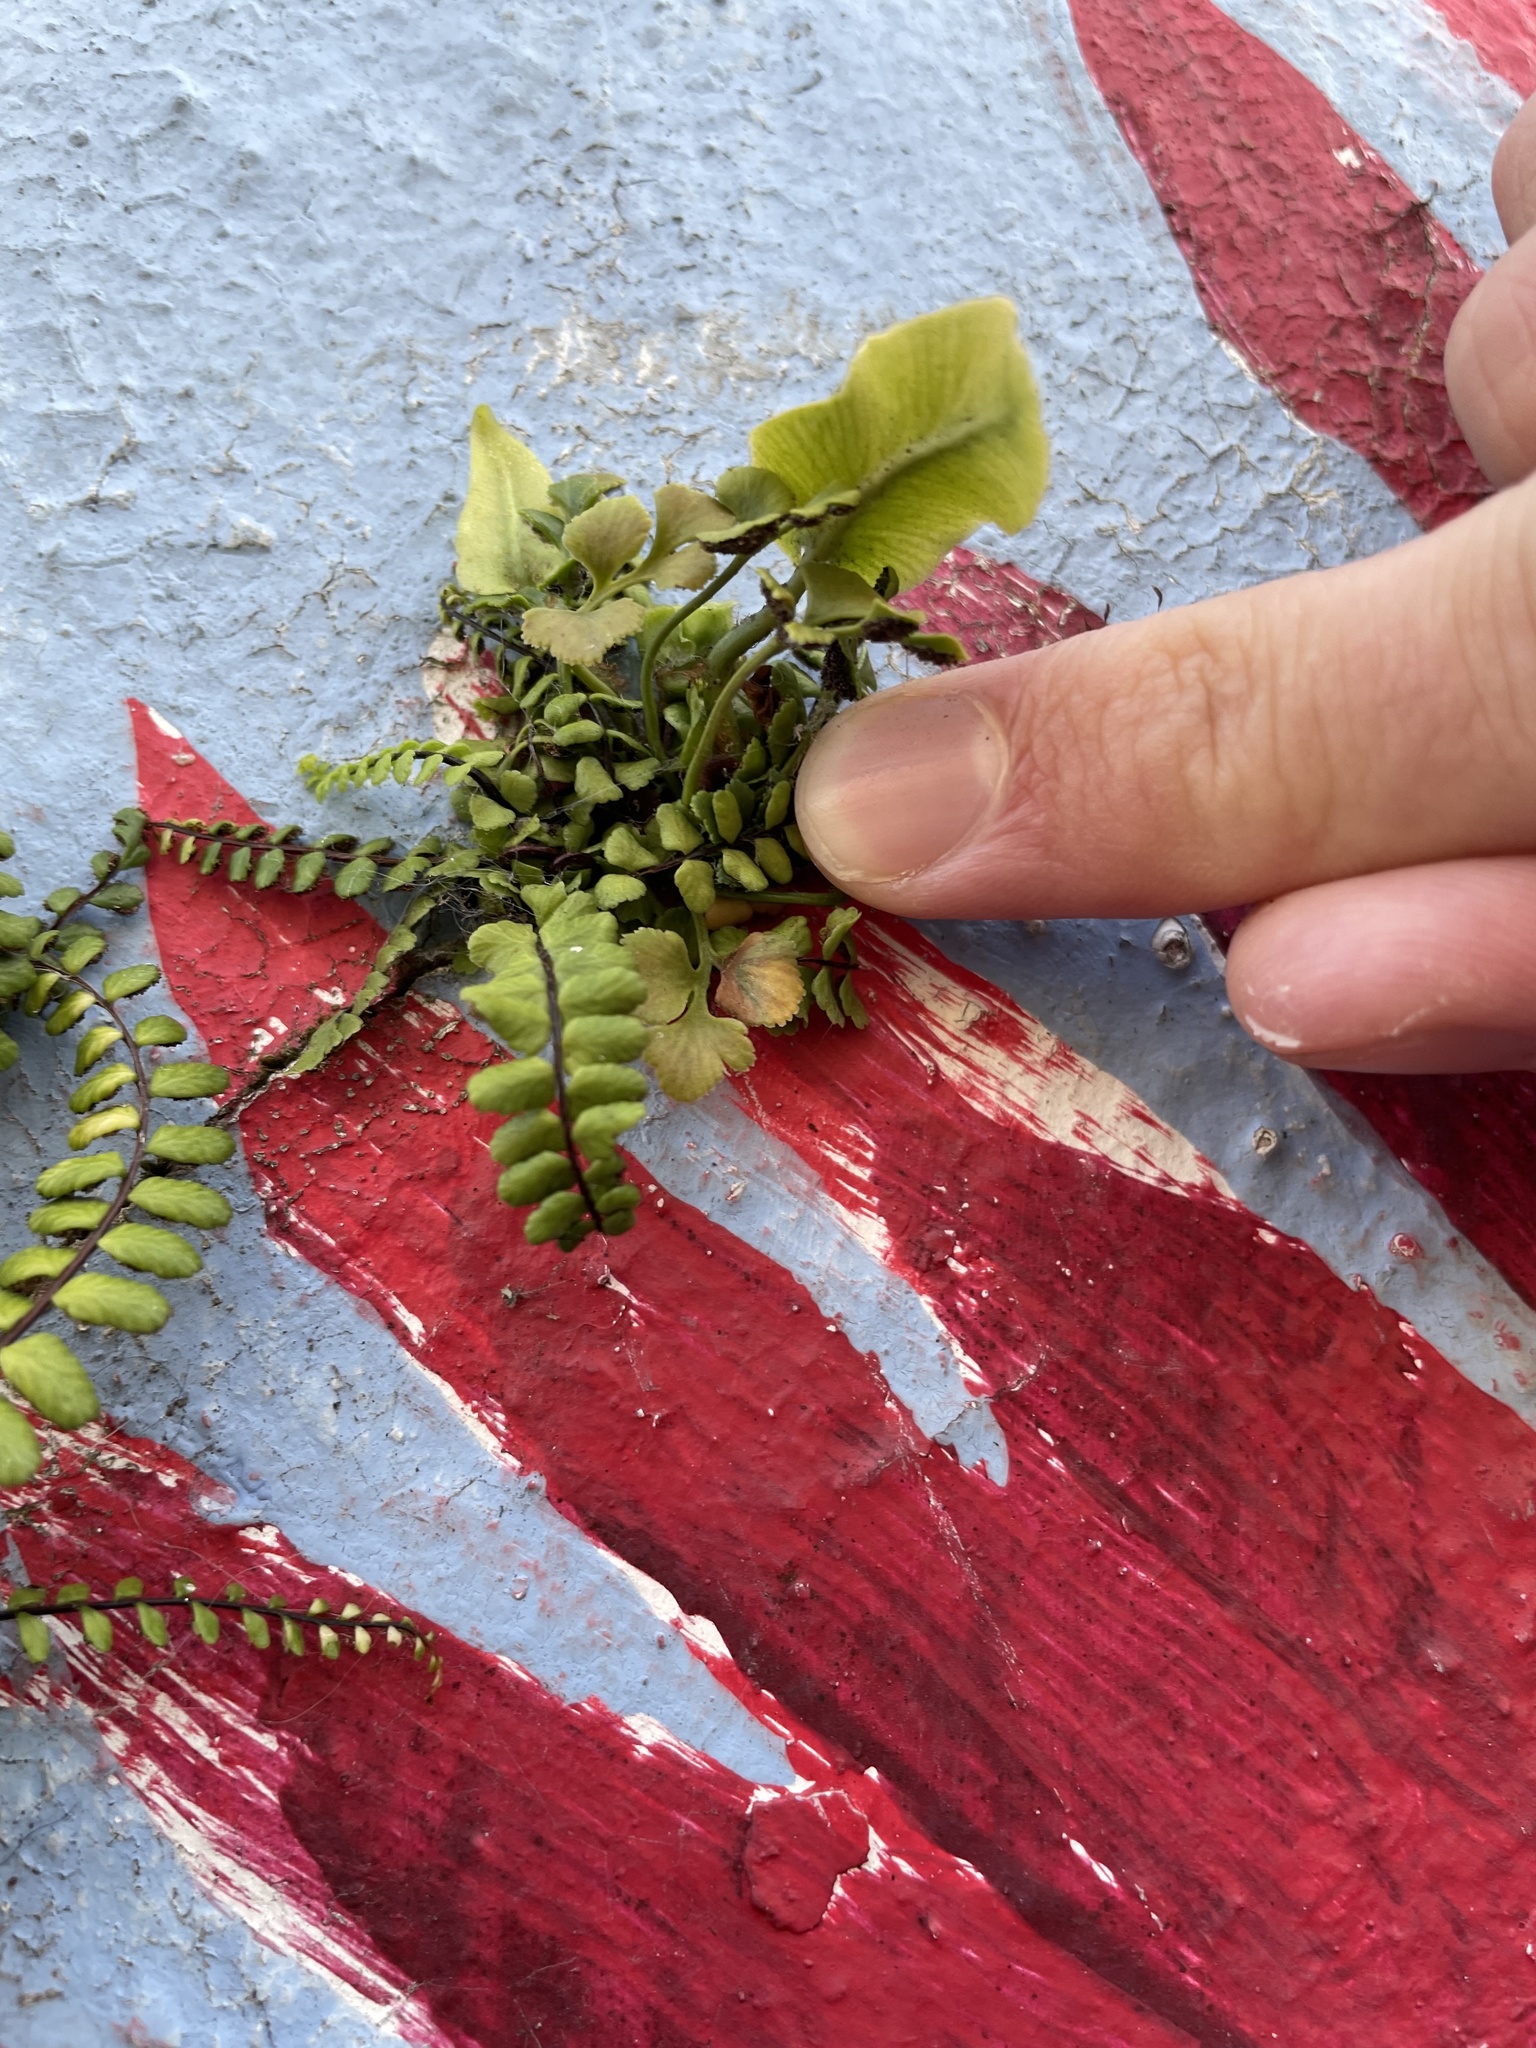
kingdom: Plantae
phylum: Tracheophyta
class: Polypodiopsida
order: Polypodiales
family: Aspleniaceae
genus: Asplenium
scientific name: Asplenium ruta-muraria
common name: Wall-rue
